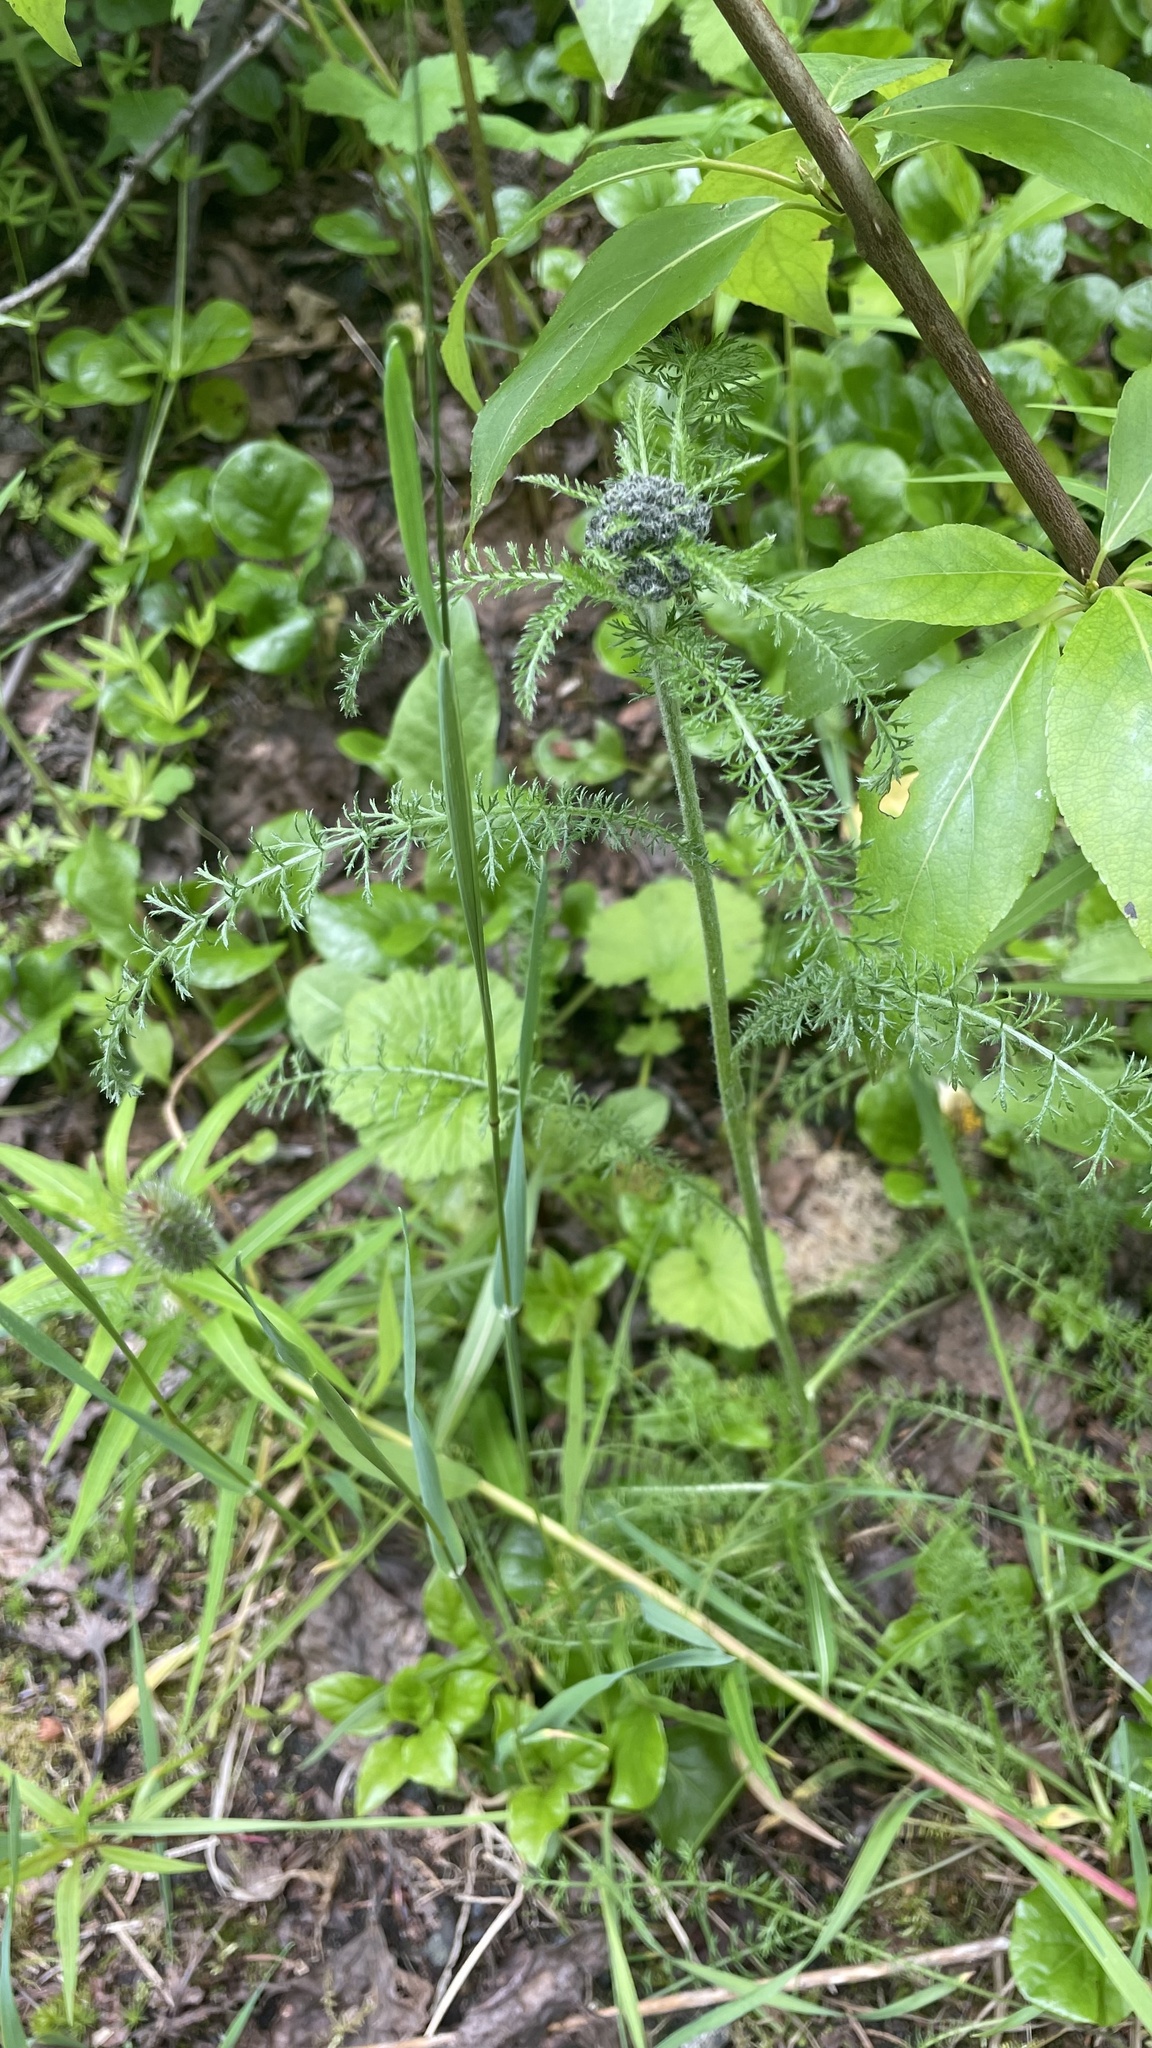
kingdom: Plantae
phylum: Tracheophyta
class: Magnoliopsida
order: Asterales
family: Asteraceae
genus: Achillea
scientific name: Achillea millefolium
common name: Yarrow
